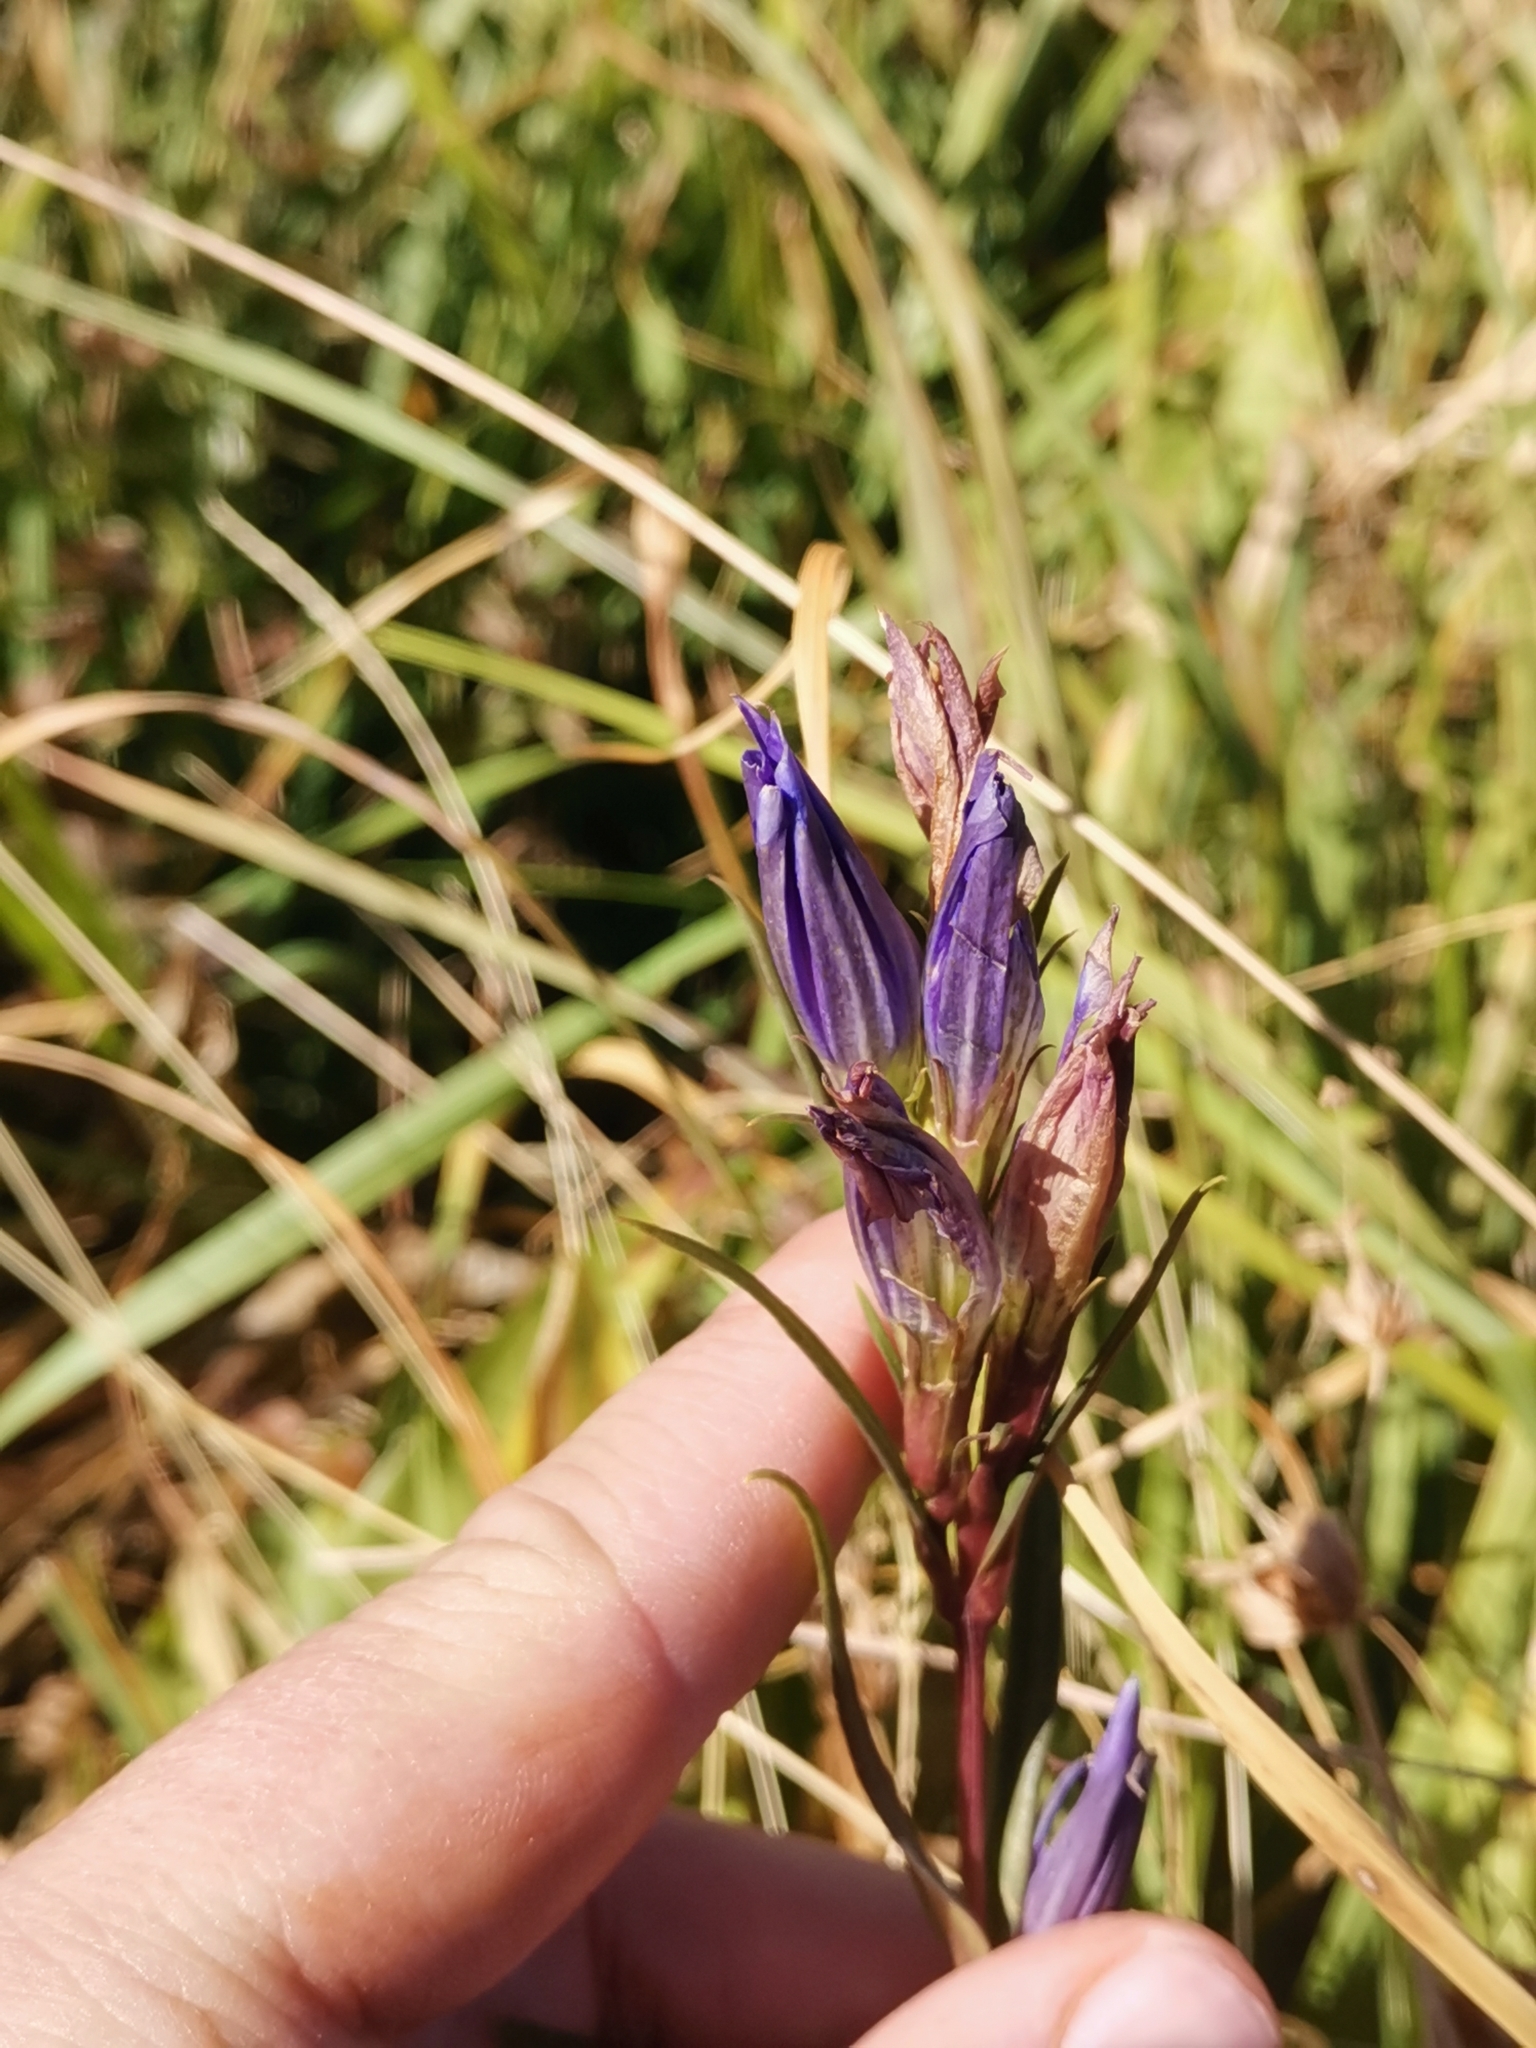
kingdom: Plantae
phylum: Tracheophyta
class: Magnoliopsida
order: Gentianales
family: Gentianaceae
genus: Gentiana
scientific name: Gentiana pneumonanthe
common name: Marsh gentian
